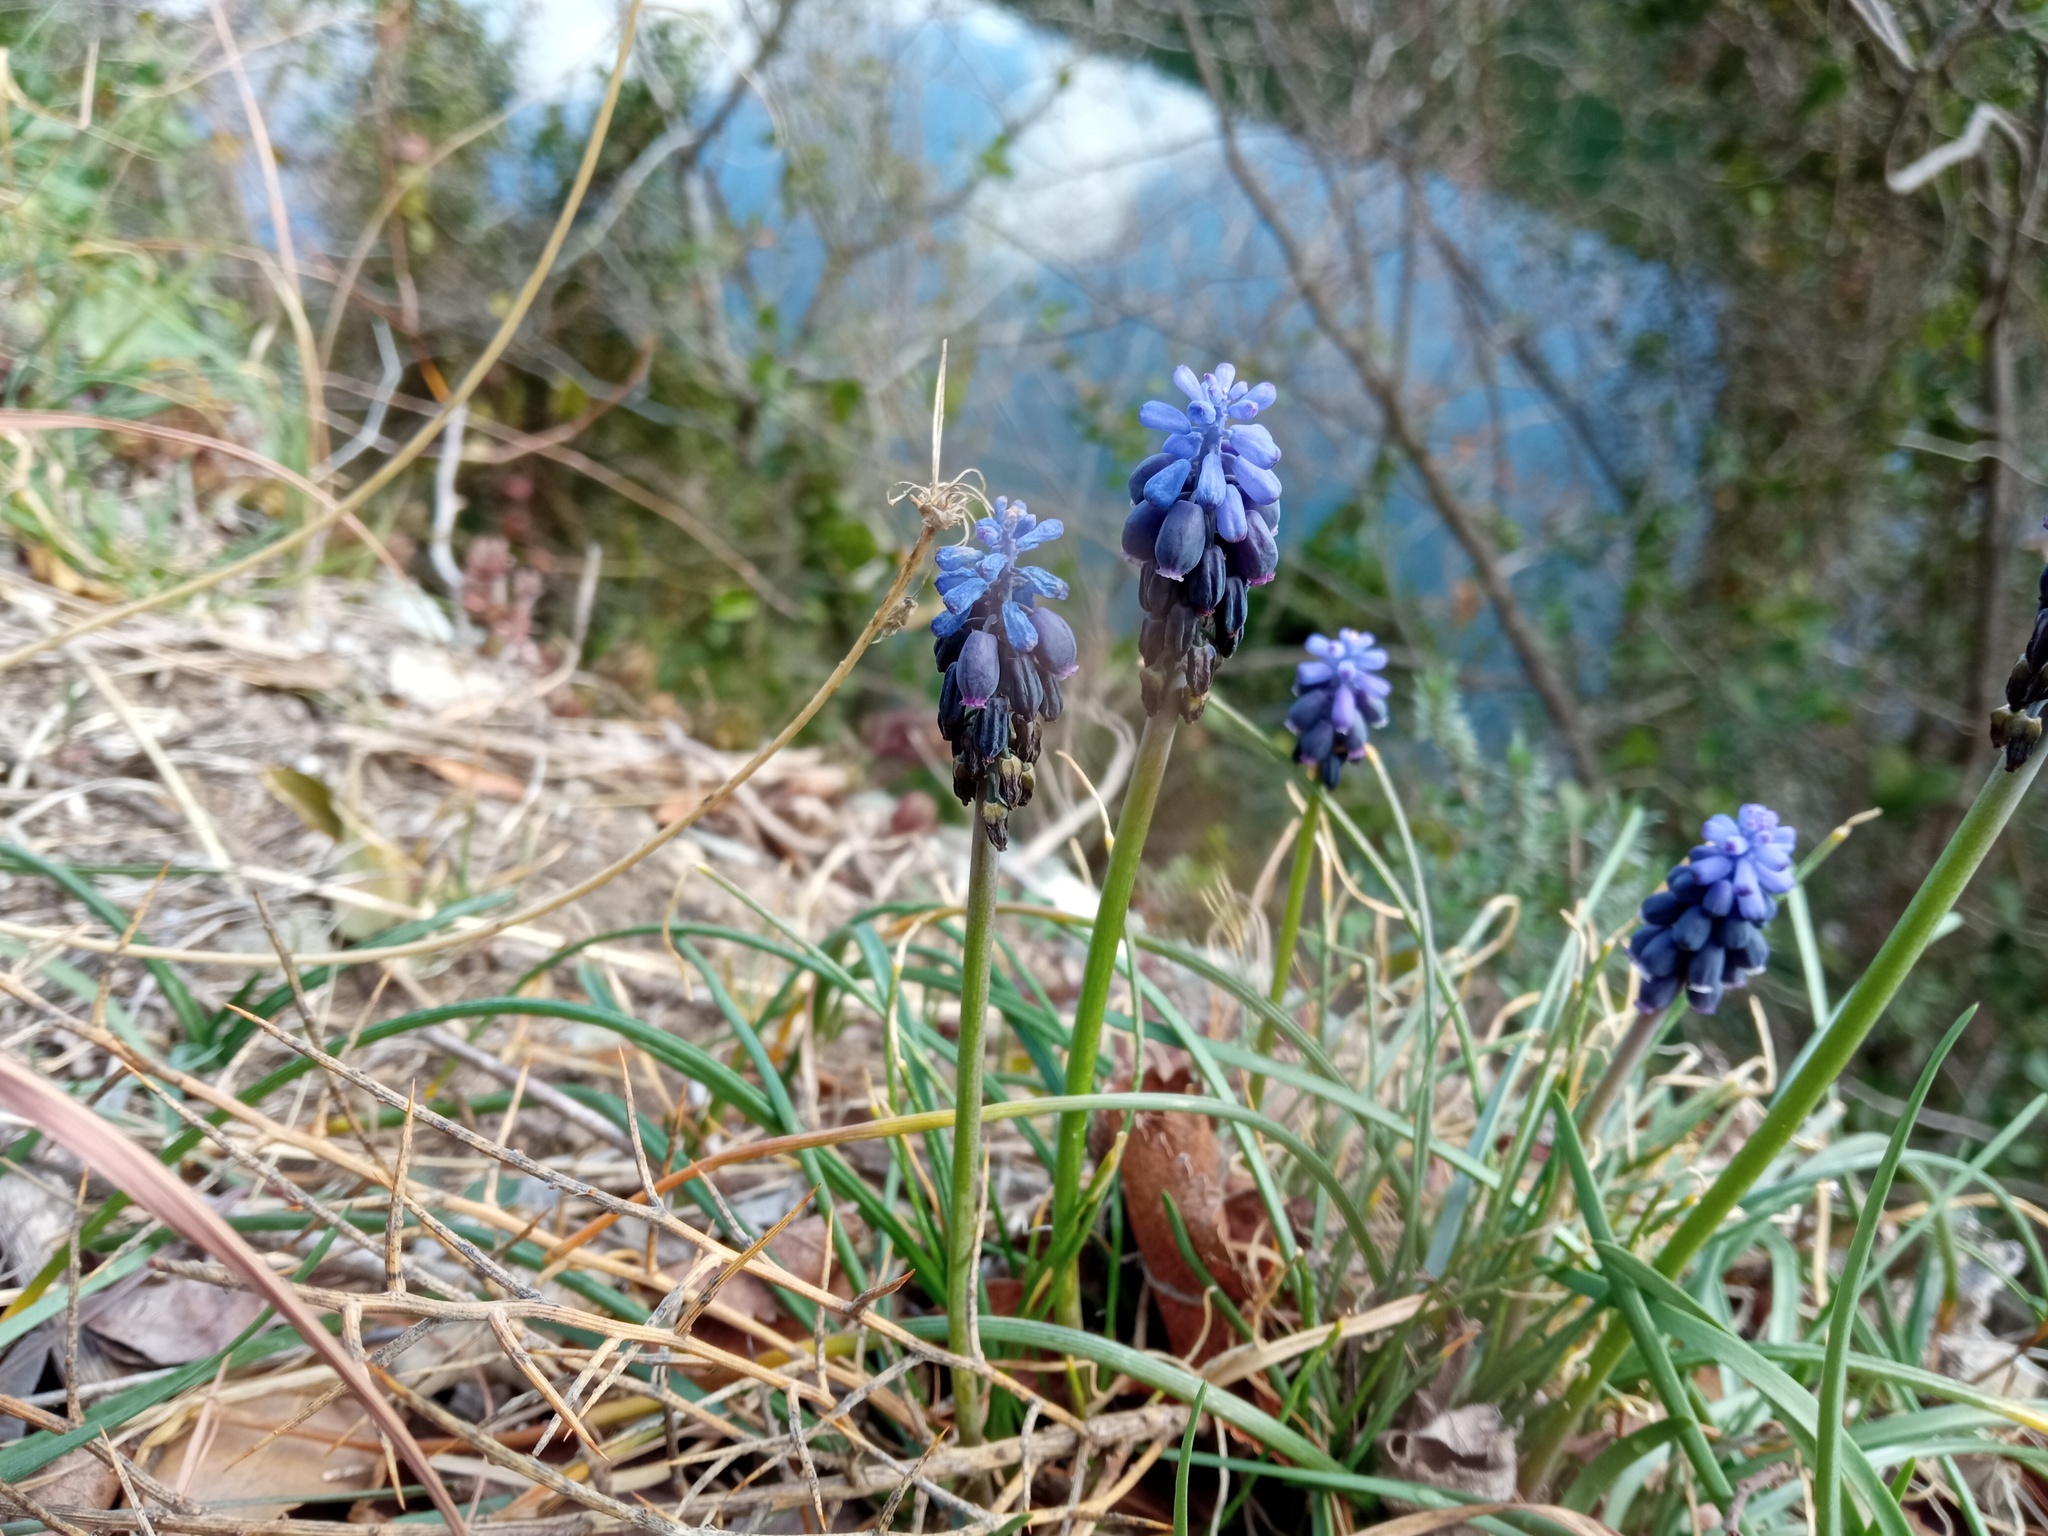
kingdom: Plantae
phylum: Tracheophyta
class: Liliopsida
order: Asparagales
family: Asparagaceae
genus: Muscari
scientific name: Muscari neglectum
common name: Grape-hyacinth
